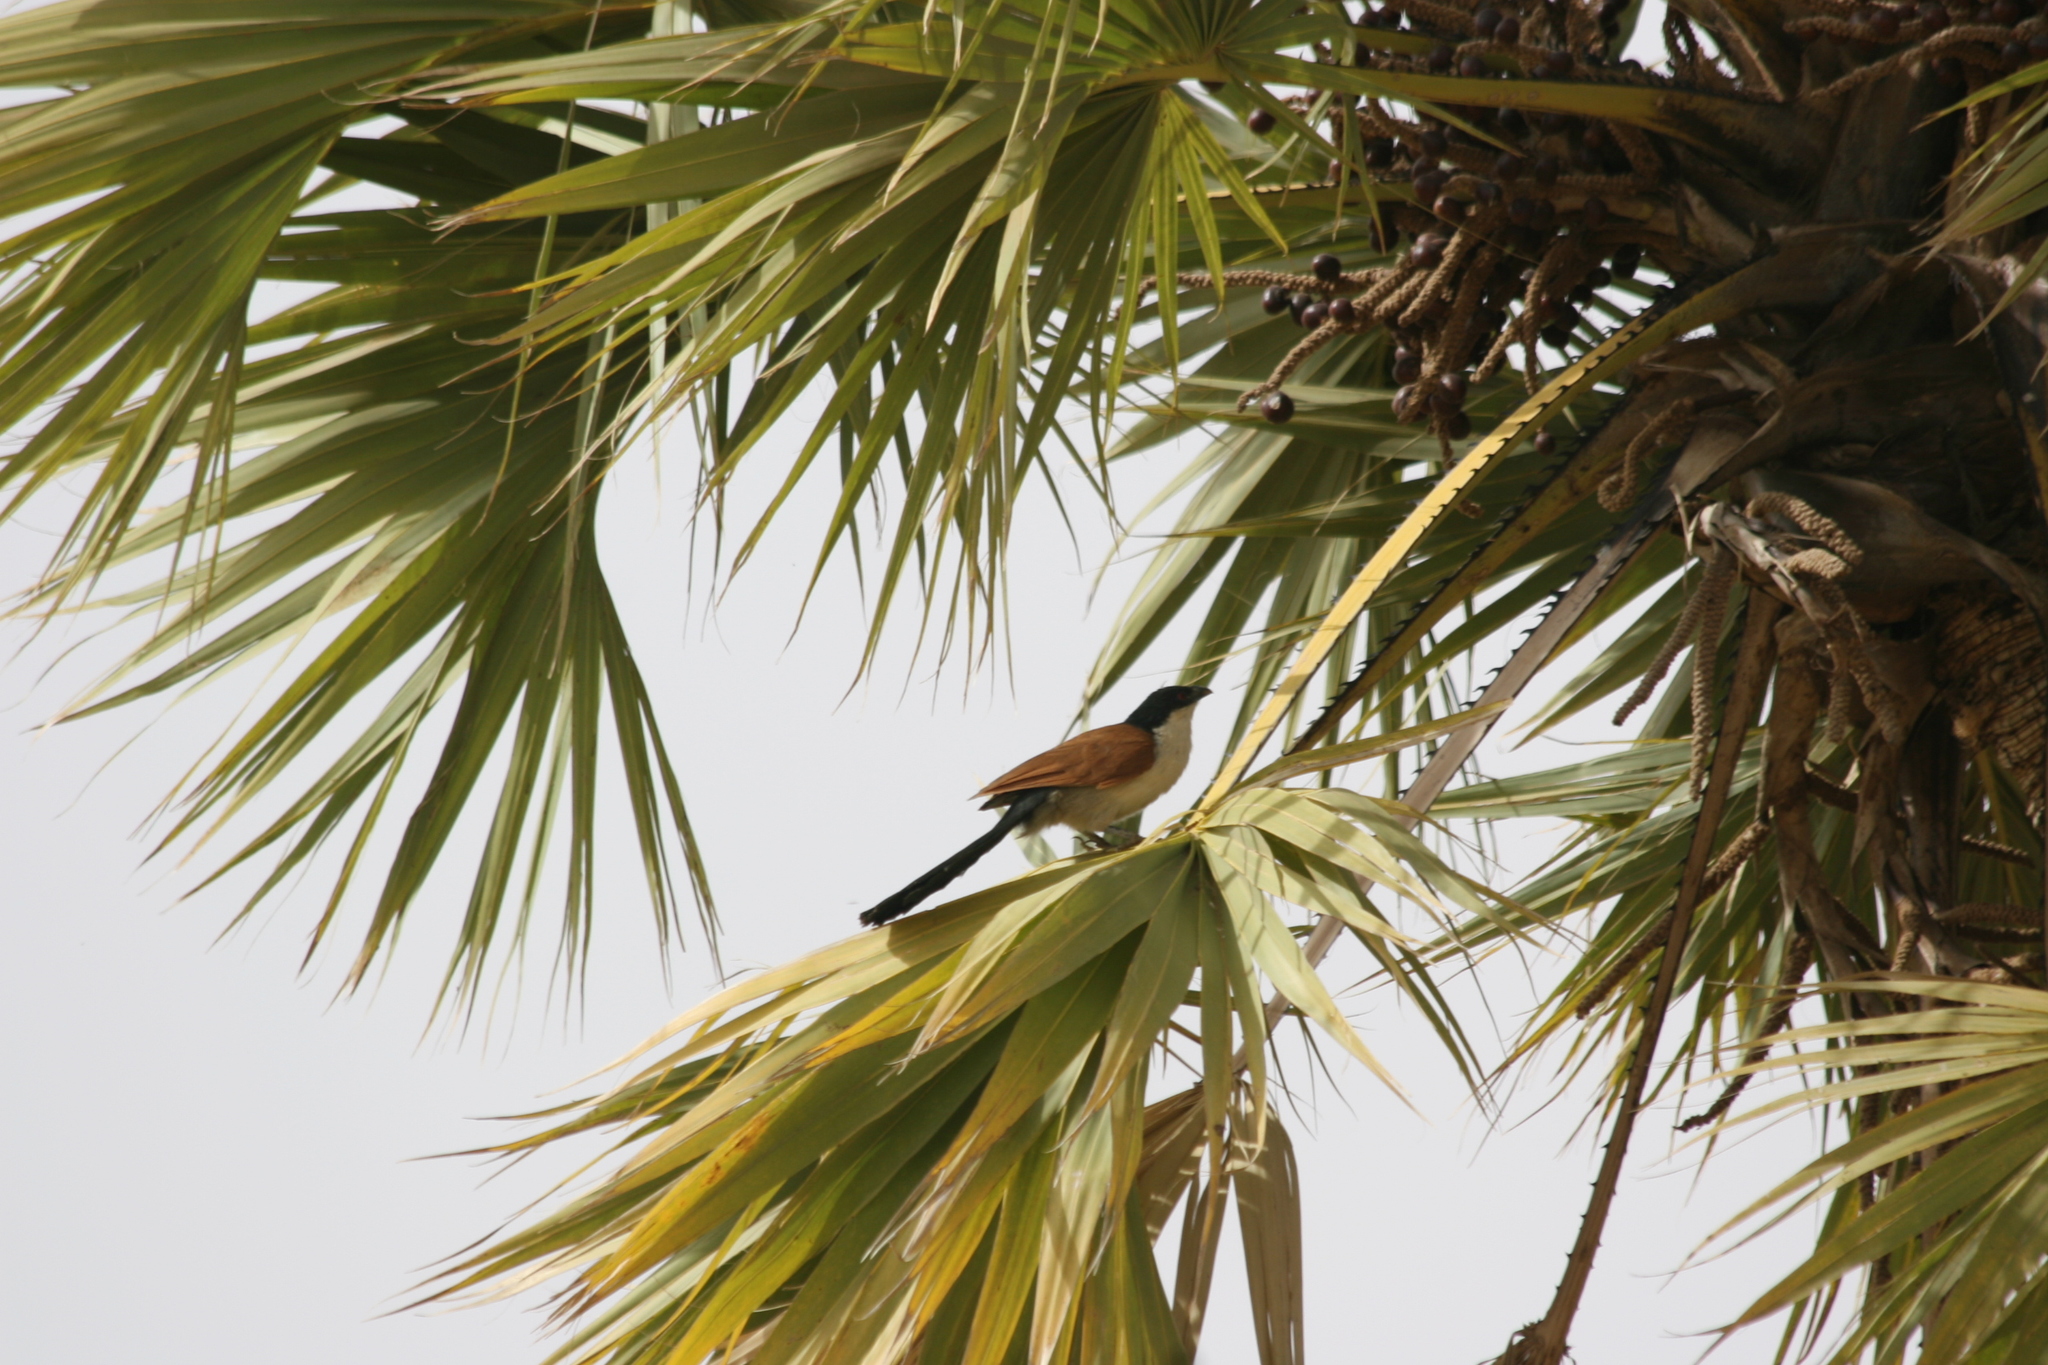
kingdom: Animalia
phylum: Chordata
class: Aves
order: Cuculiformes
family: Cuculidae
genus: Centropus
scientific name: Centropus senegalensis
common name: Senegal coucal
